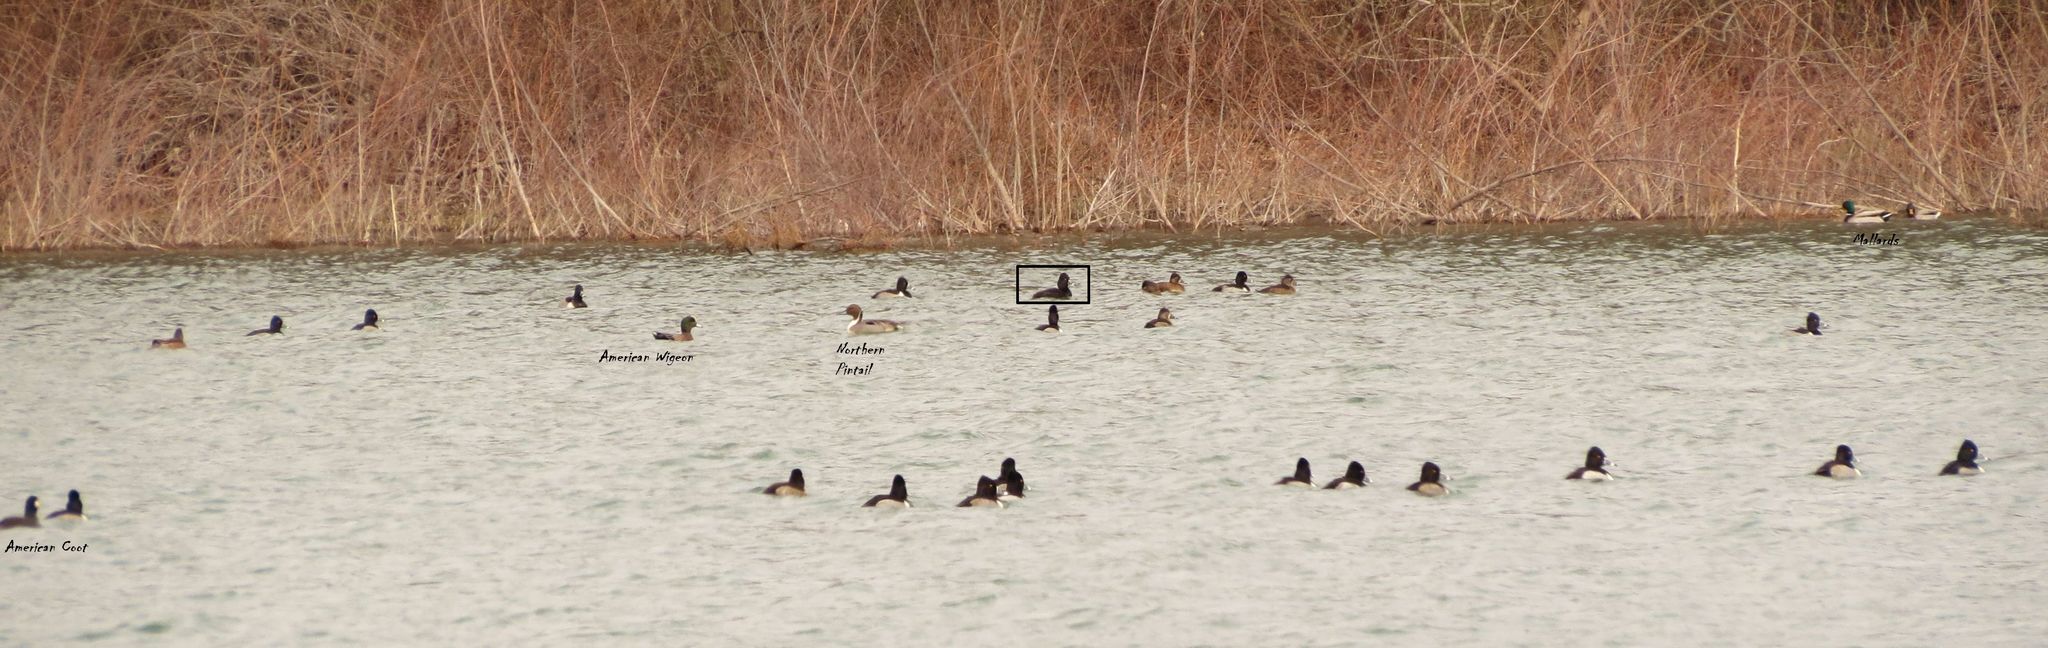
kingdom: Animalia
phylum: Chordata
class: Aves
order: Anseriformes
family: Anatidae
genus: Anas
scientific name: Anas platyrhynchos
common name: Mallard
